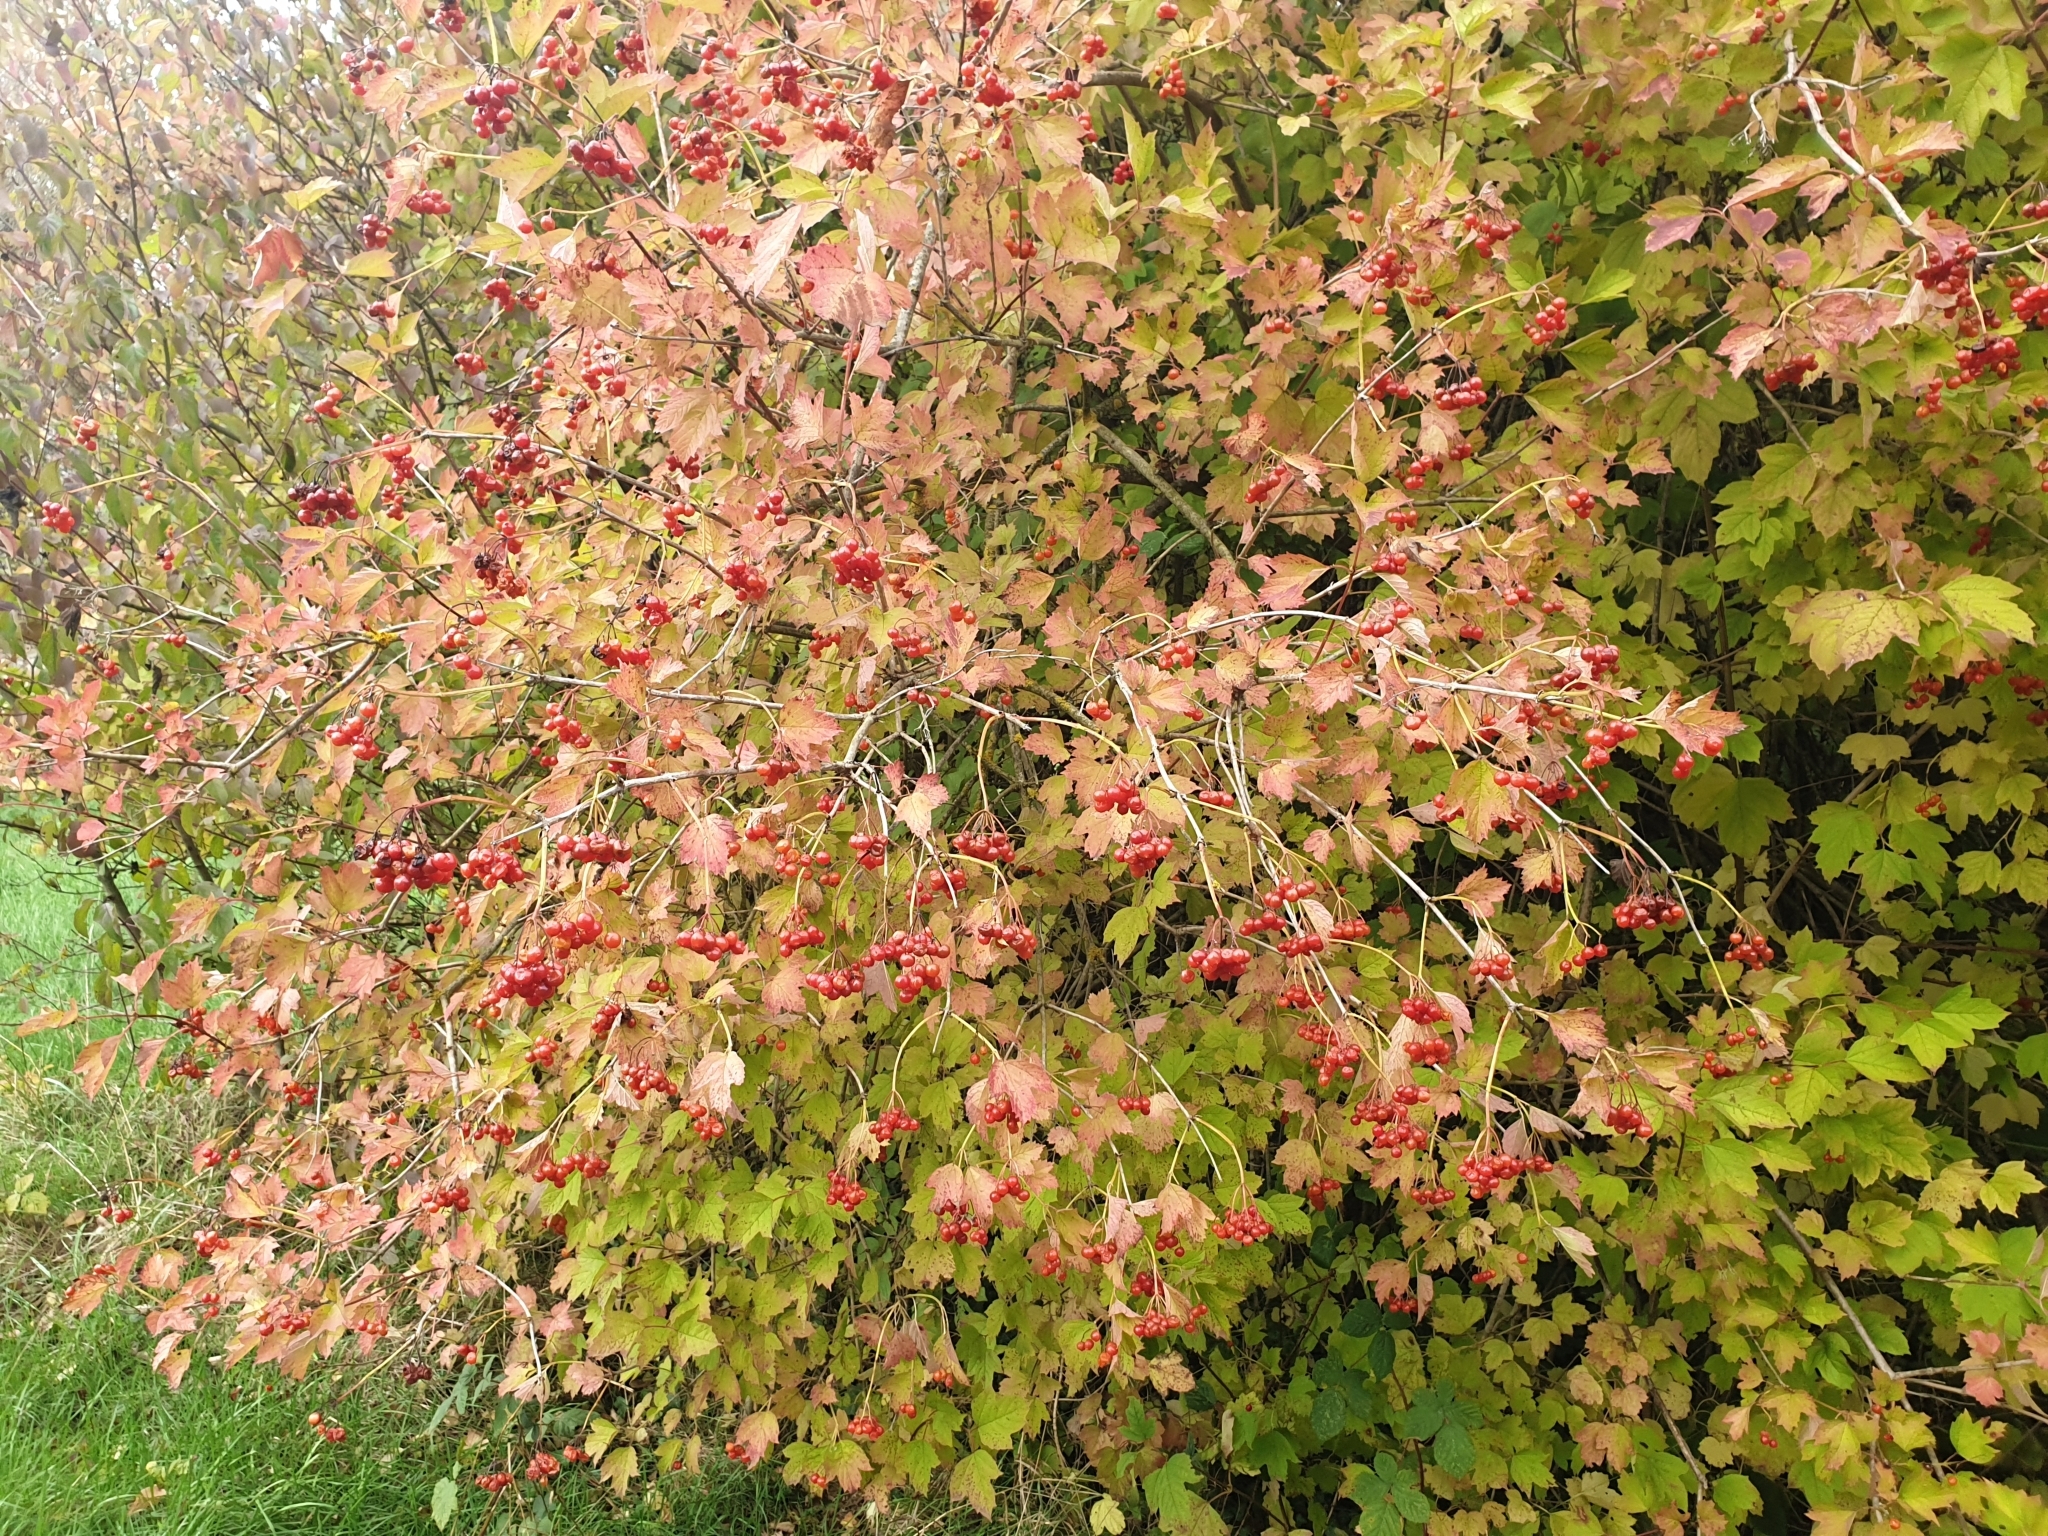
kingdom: Plantae
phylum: Tracheophyta
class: Magnoliopsida
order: Dipsacales
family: Viburnaceae
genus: Viburnum
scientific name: Viburnum opulus
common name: Guelder-rose
